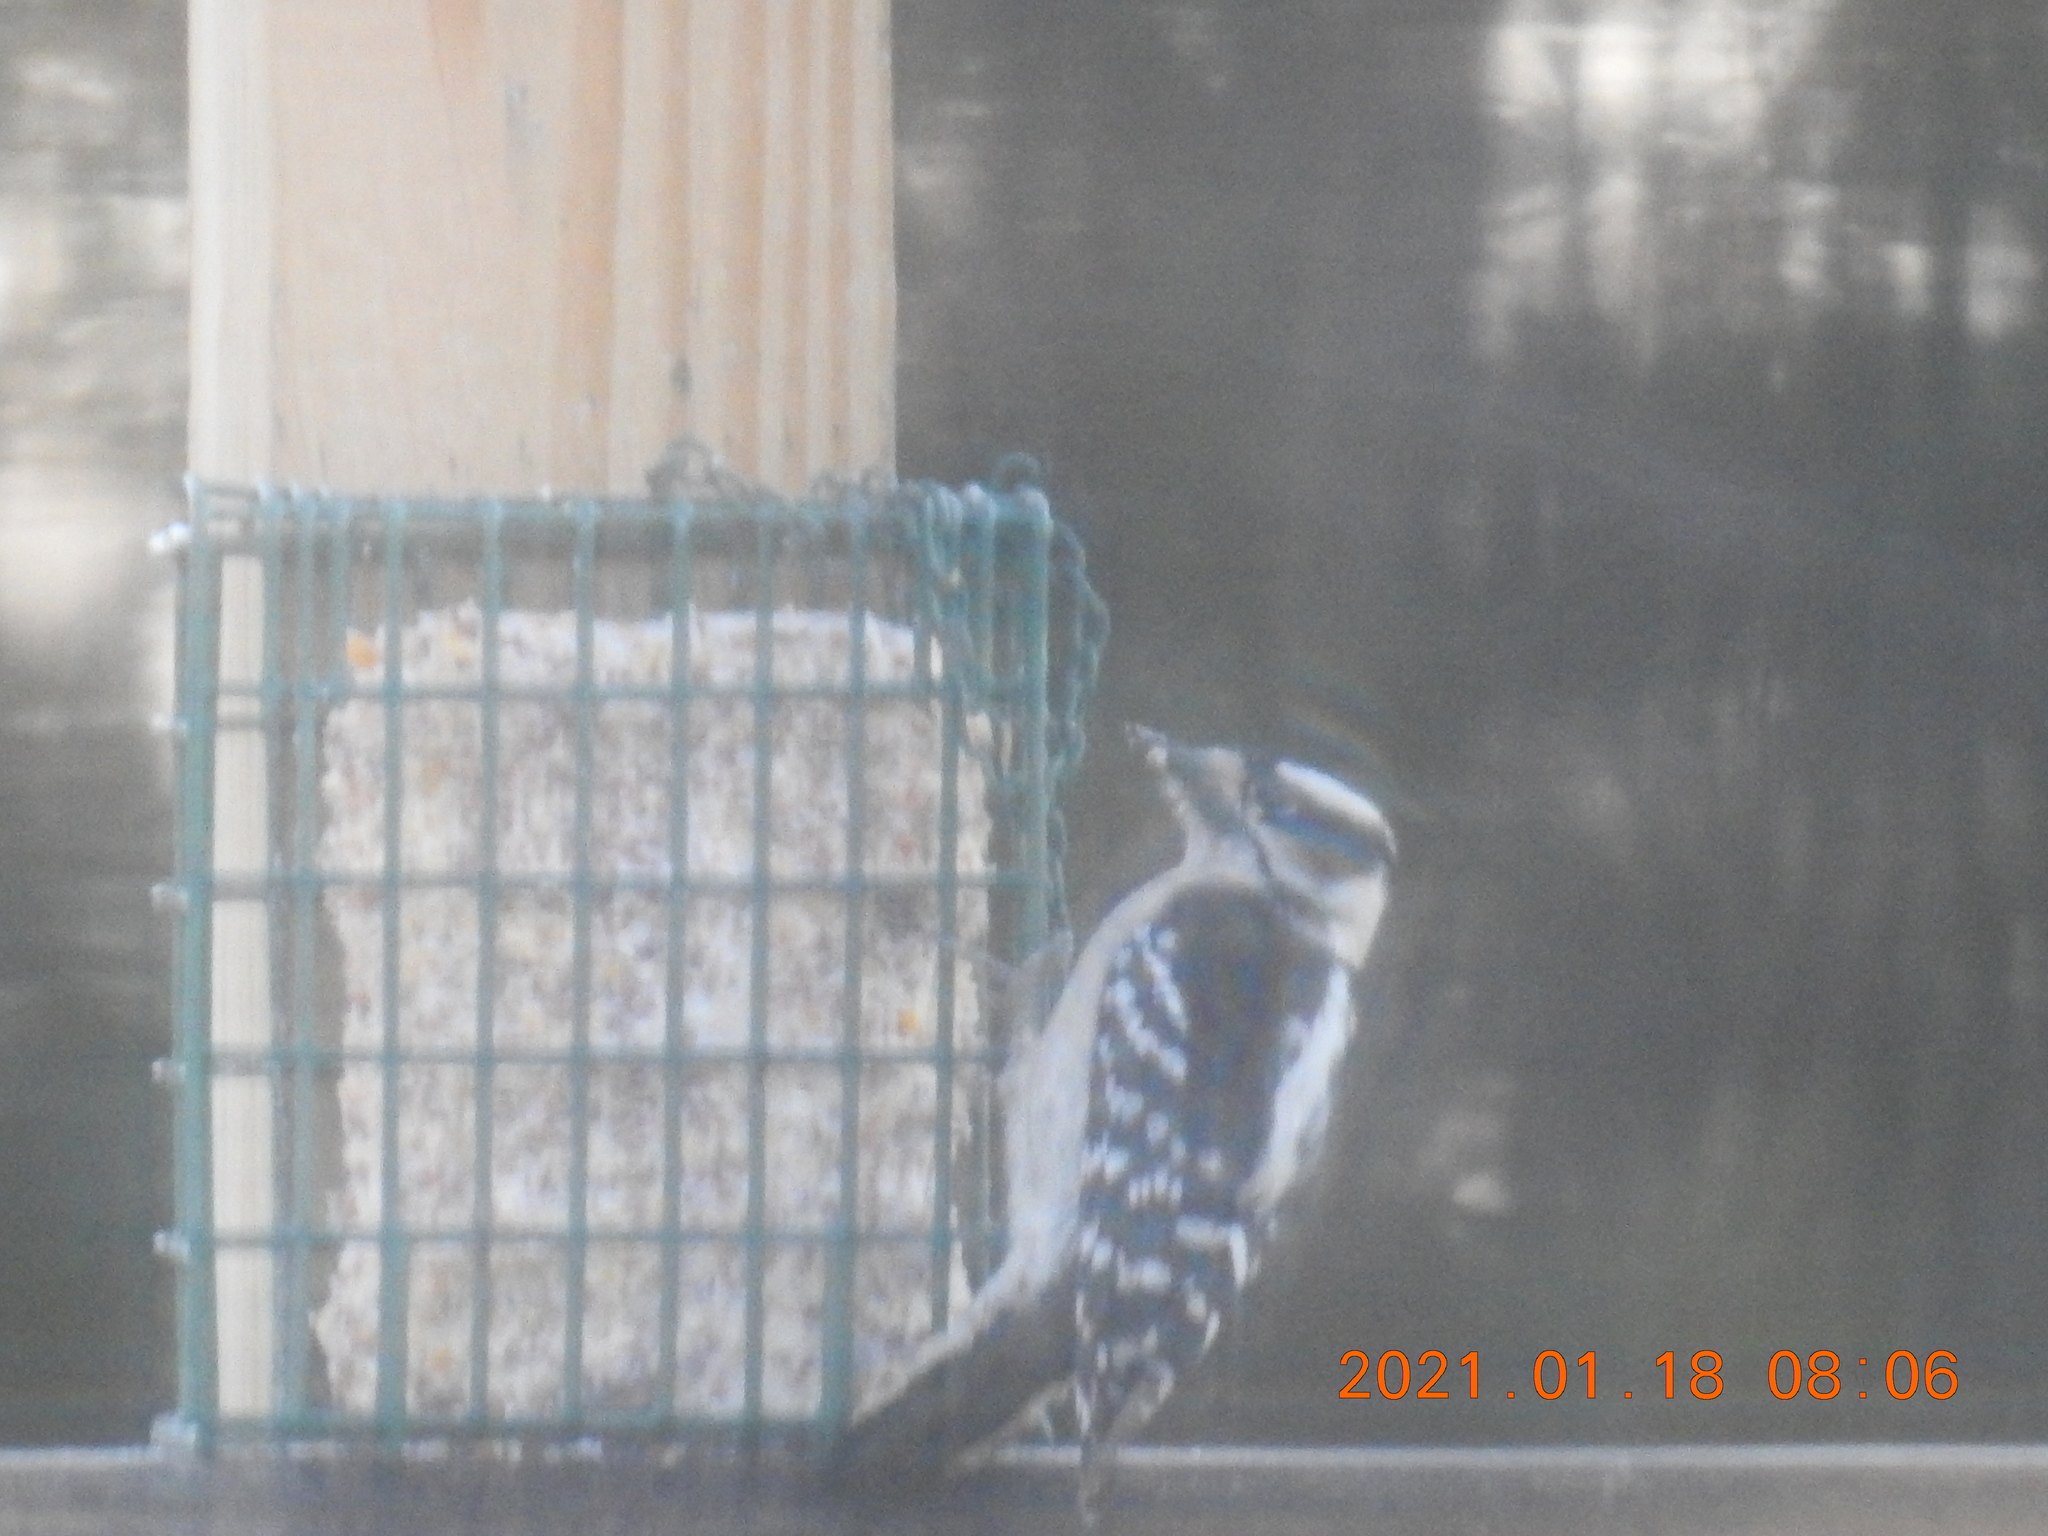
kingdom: Animalia
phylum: Chordata
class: Aves
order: Piciformes
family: Picidae
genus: Dryobates
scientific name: Dryobates pubescens
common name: Downy woodpecker
